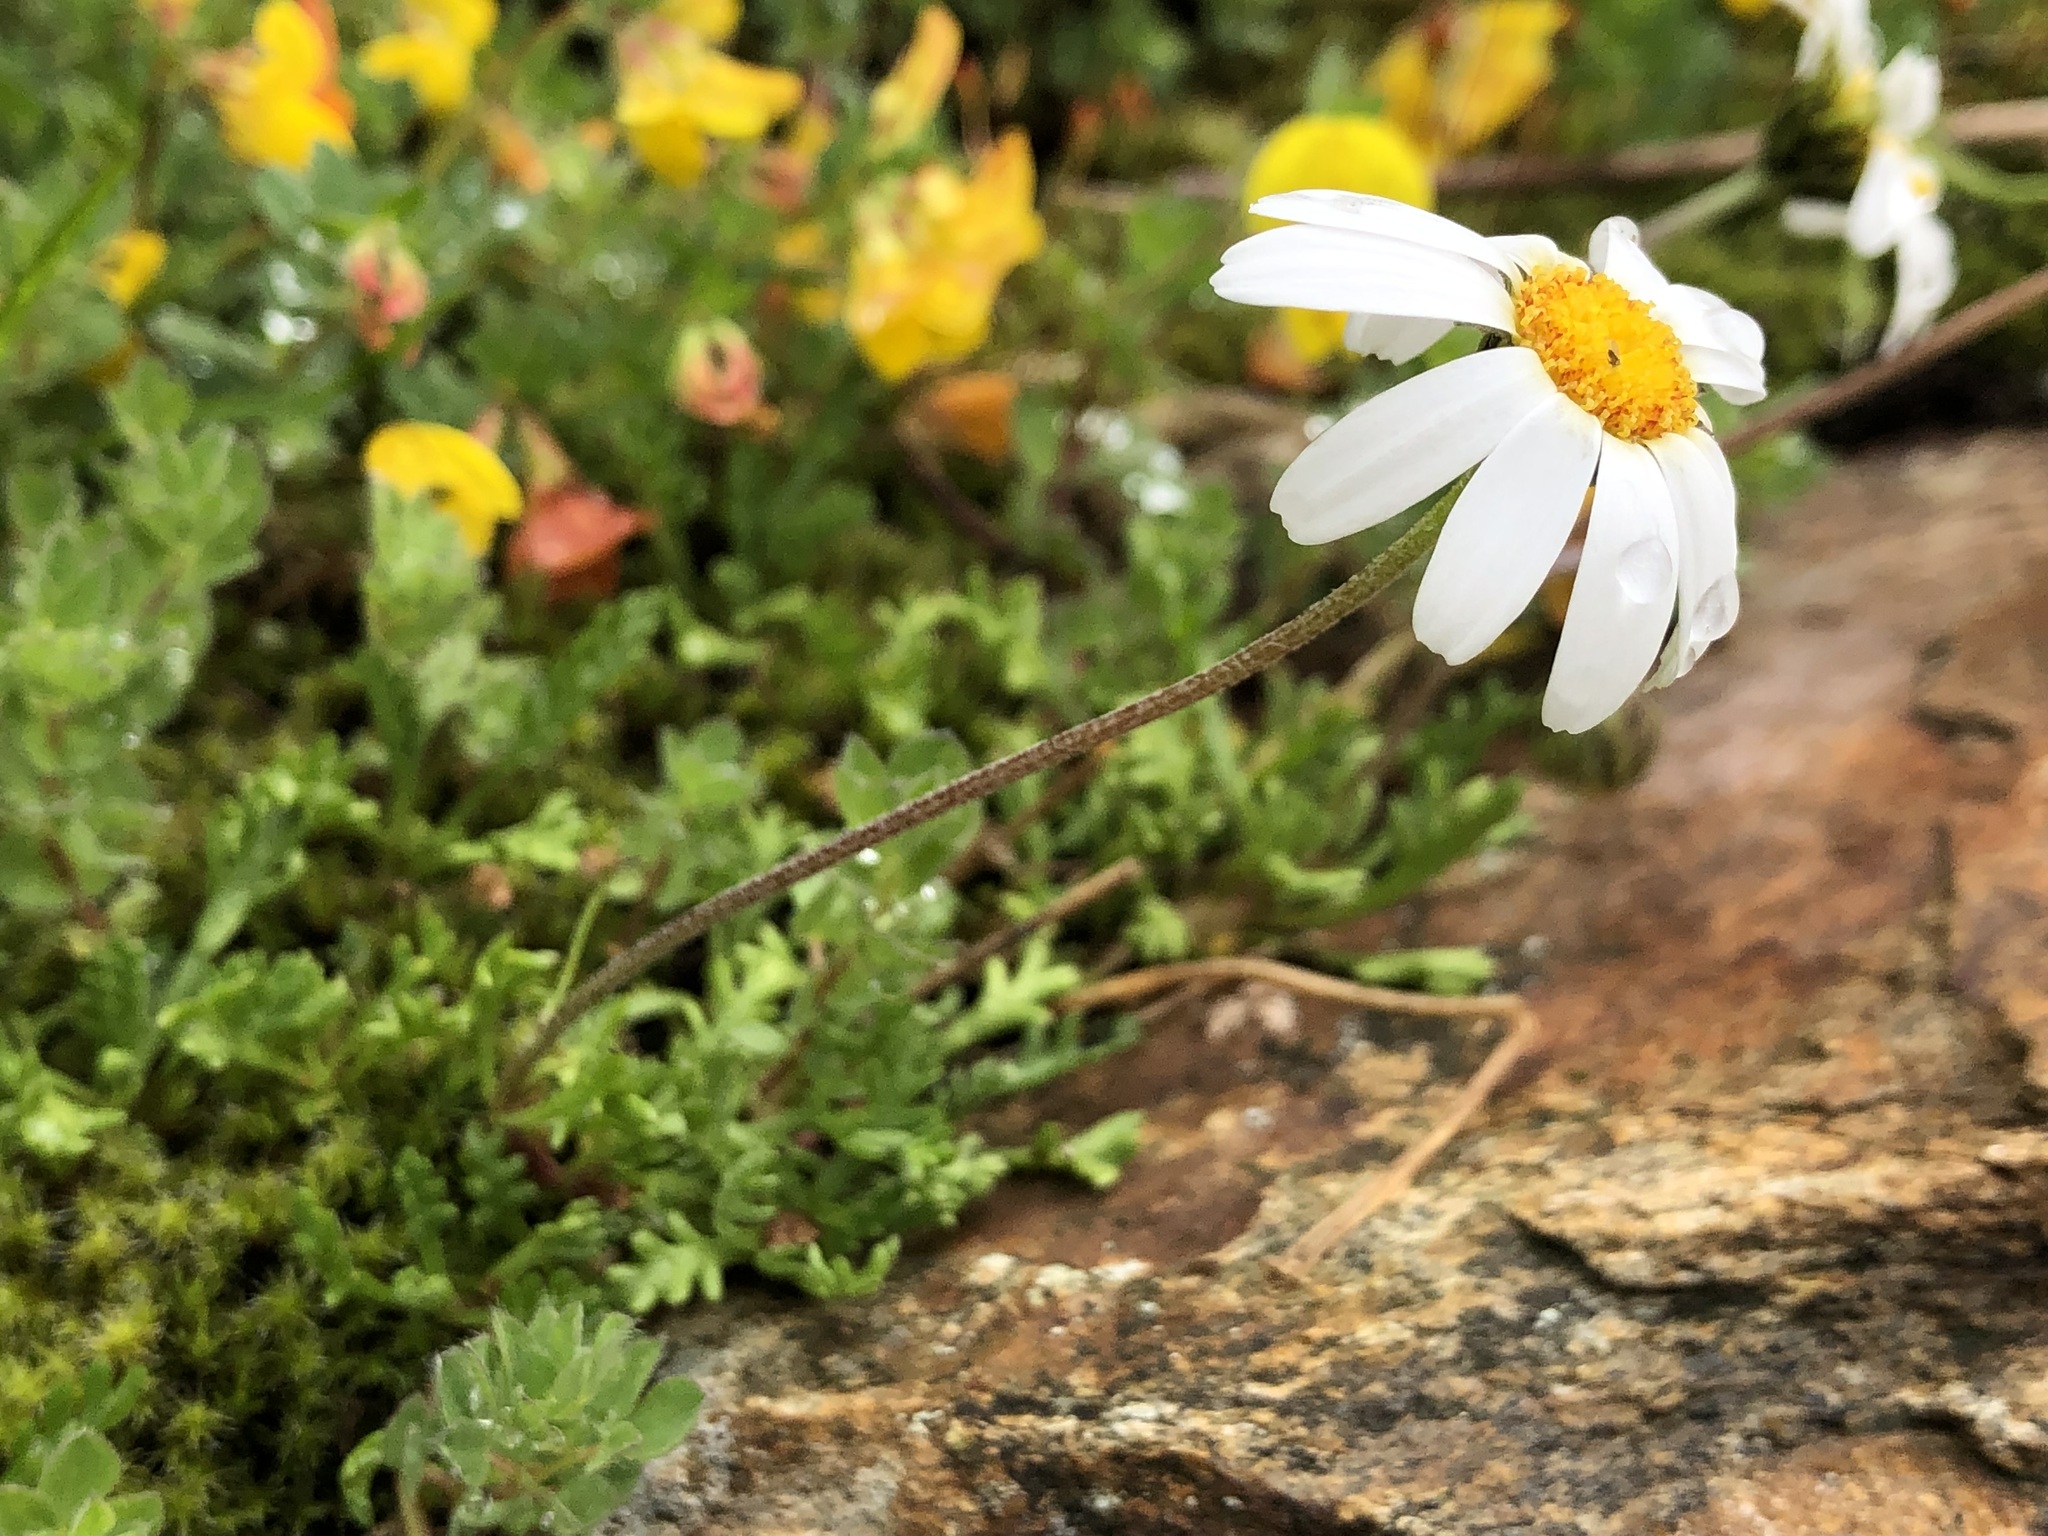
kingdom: Plantae
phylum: Tracheophyta
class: Magnoliopsida
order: Asterales
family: Asteraceae
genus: Leucanthemopsis
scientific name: Leucanthemopsis alpina
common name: Alpine moon daisy
